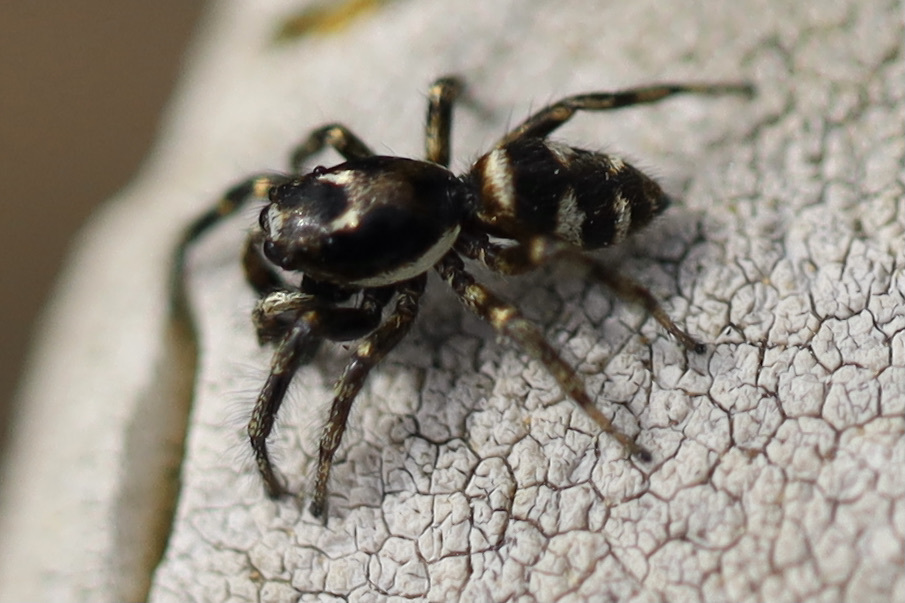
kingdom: Animalia
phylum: Arthropoda
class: Arachnida
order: Araneae
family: Salticidae
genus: Salticus
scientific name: Salticus scenicus
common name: Zebra jumper
